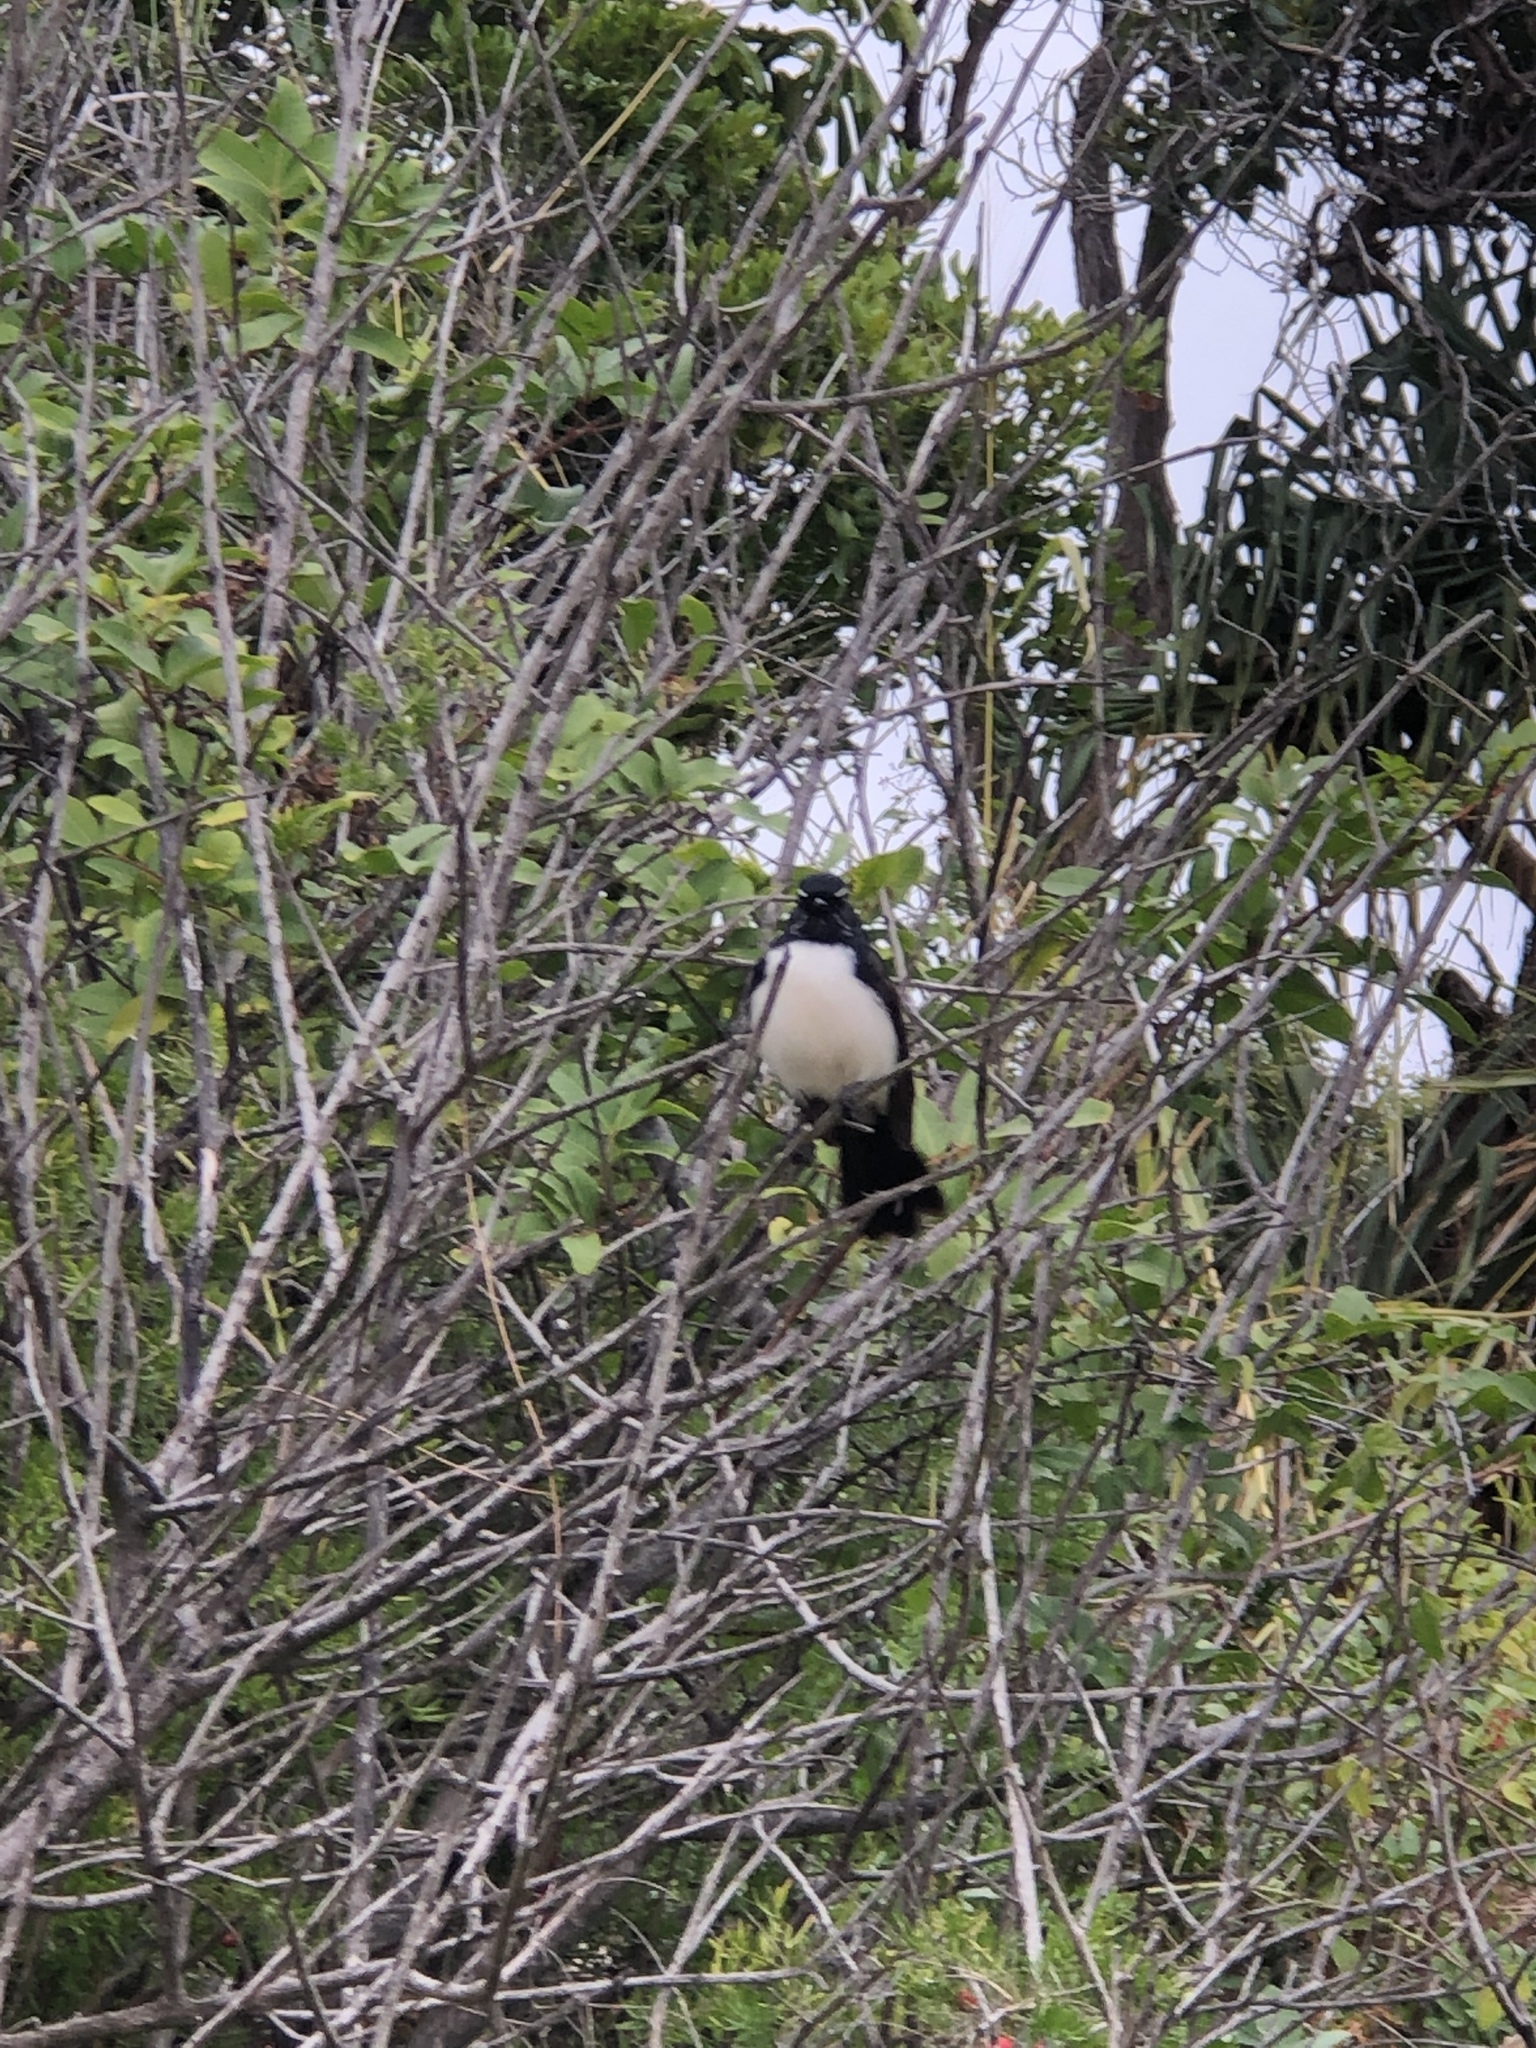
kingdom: Animalia
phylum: Chordata
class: Aves
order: Passeriformes
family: Rhipiduridae
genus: Rhipidura
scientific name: Rhipidura leucophrys
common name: Willie wagtail
